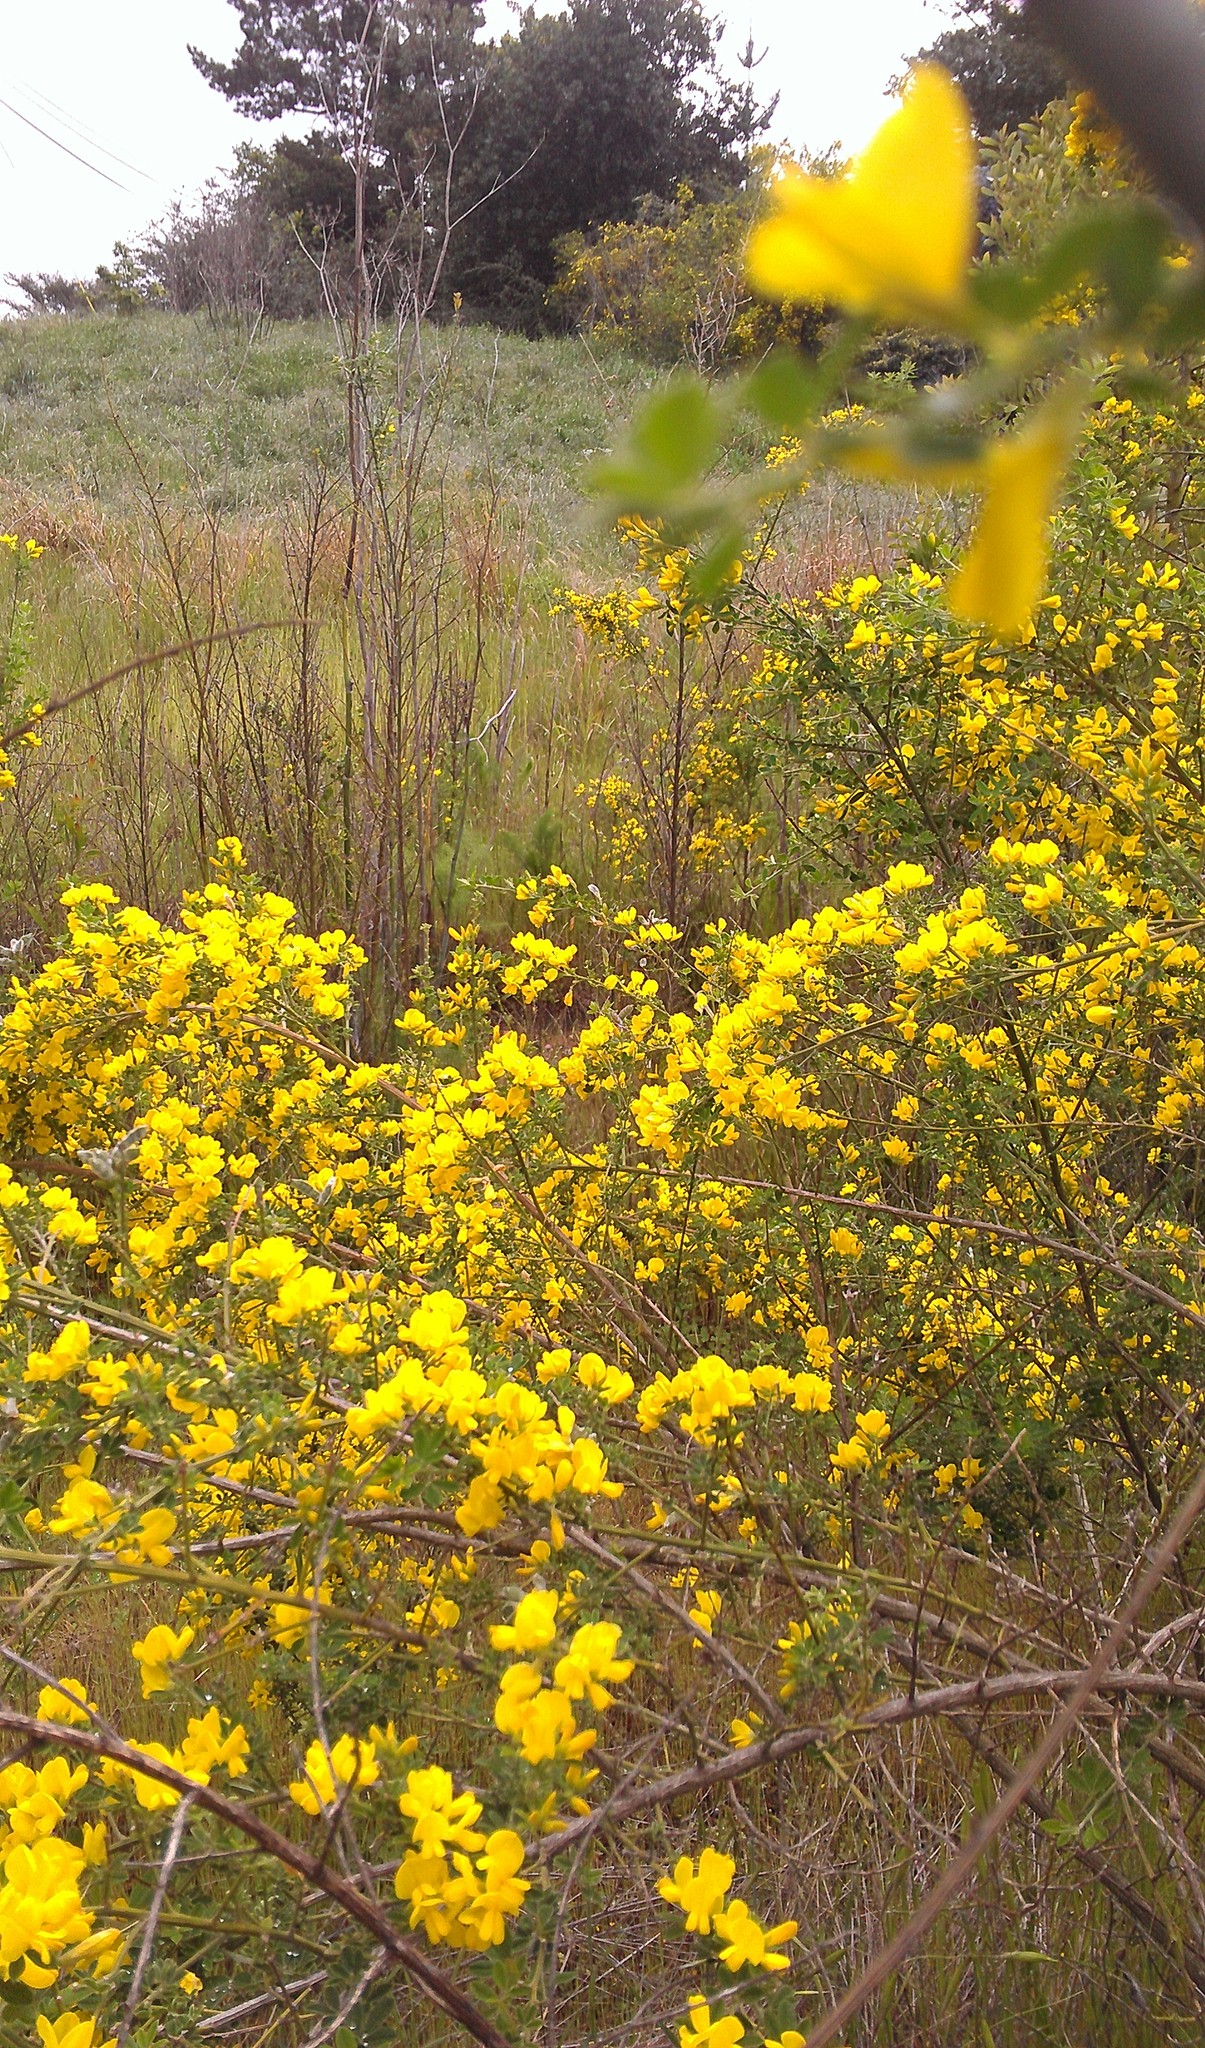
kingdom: Plantae
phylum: Tracheophyta
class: Magnoliopsida
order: Fabales
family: Fabaceae
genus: Genista
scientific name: Genista monspessulana
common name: Montpellier broom
